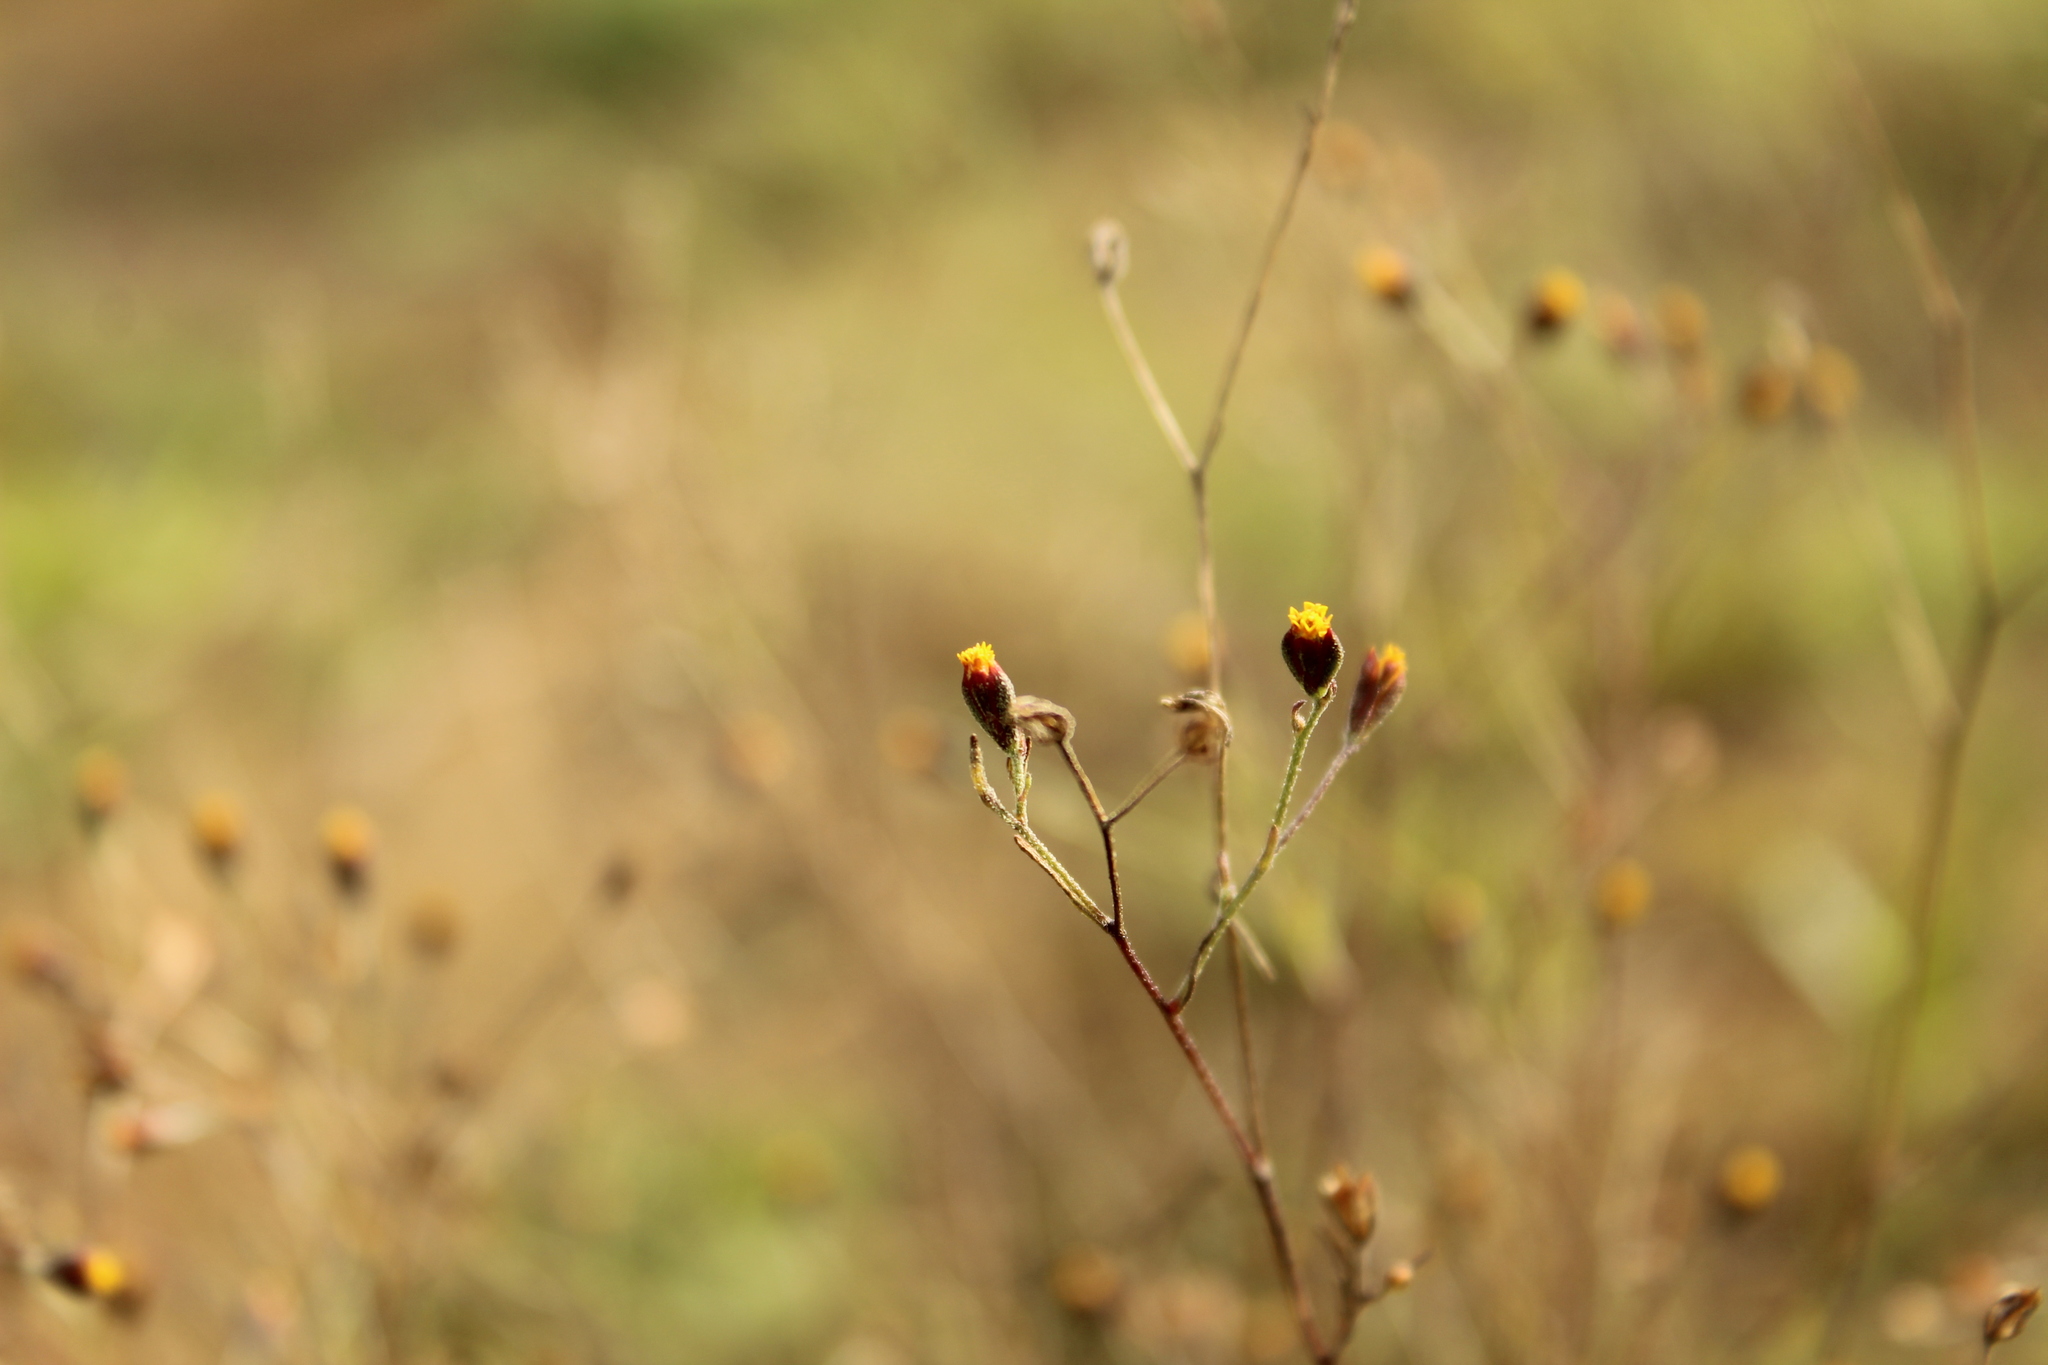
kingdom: Plantae
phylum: Tracheophyta
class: Magnoliopsida
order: Asterales
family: Asteraceae
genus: Schkuhria
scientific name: Schkuhria pinnata
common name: Dwarf marigold
